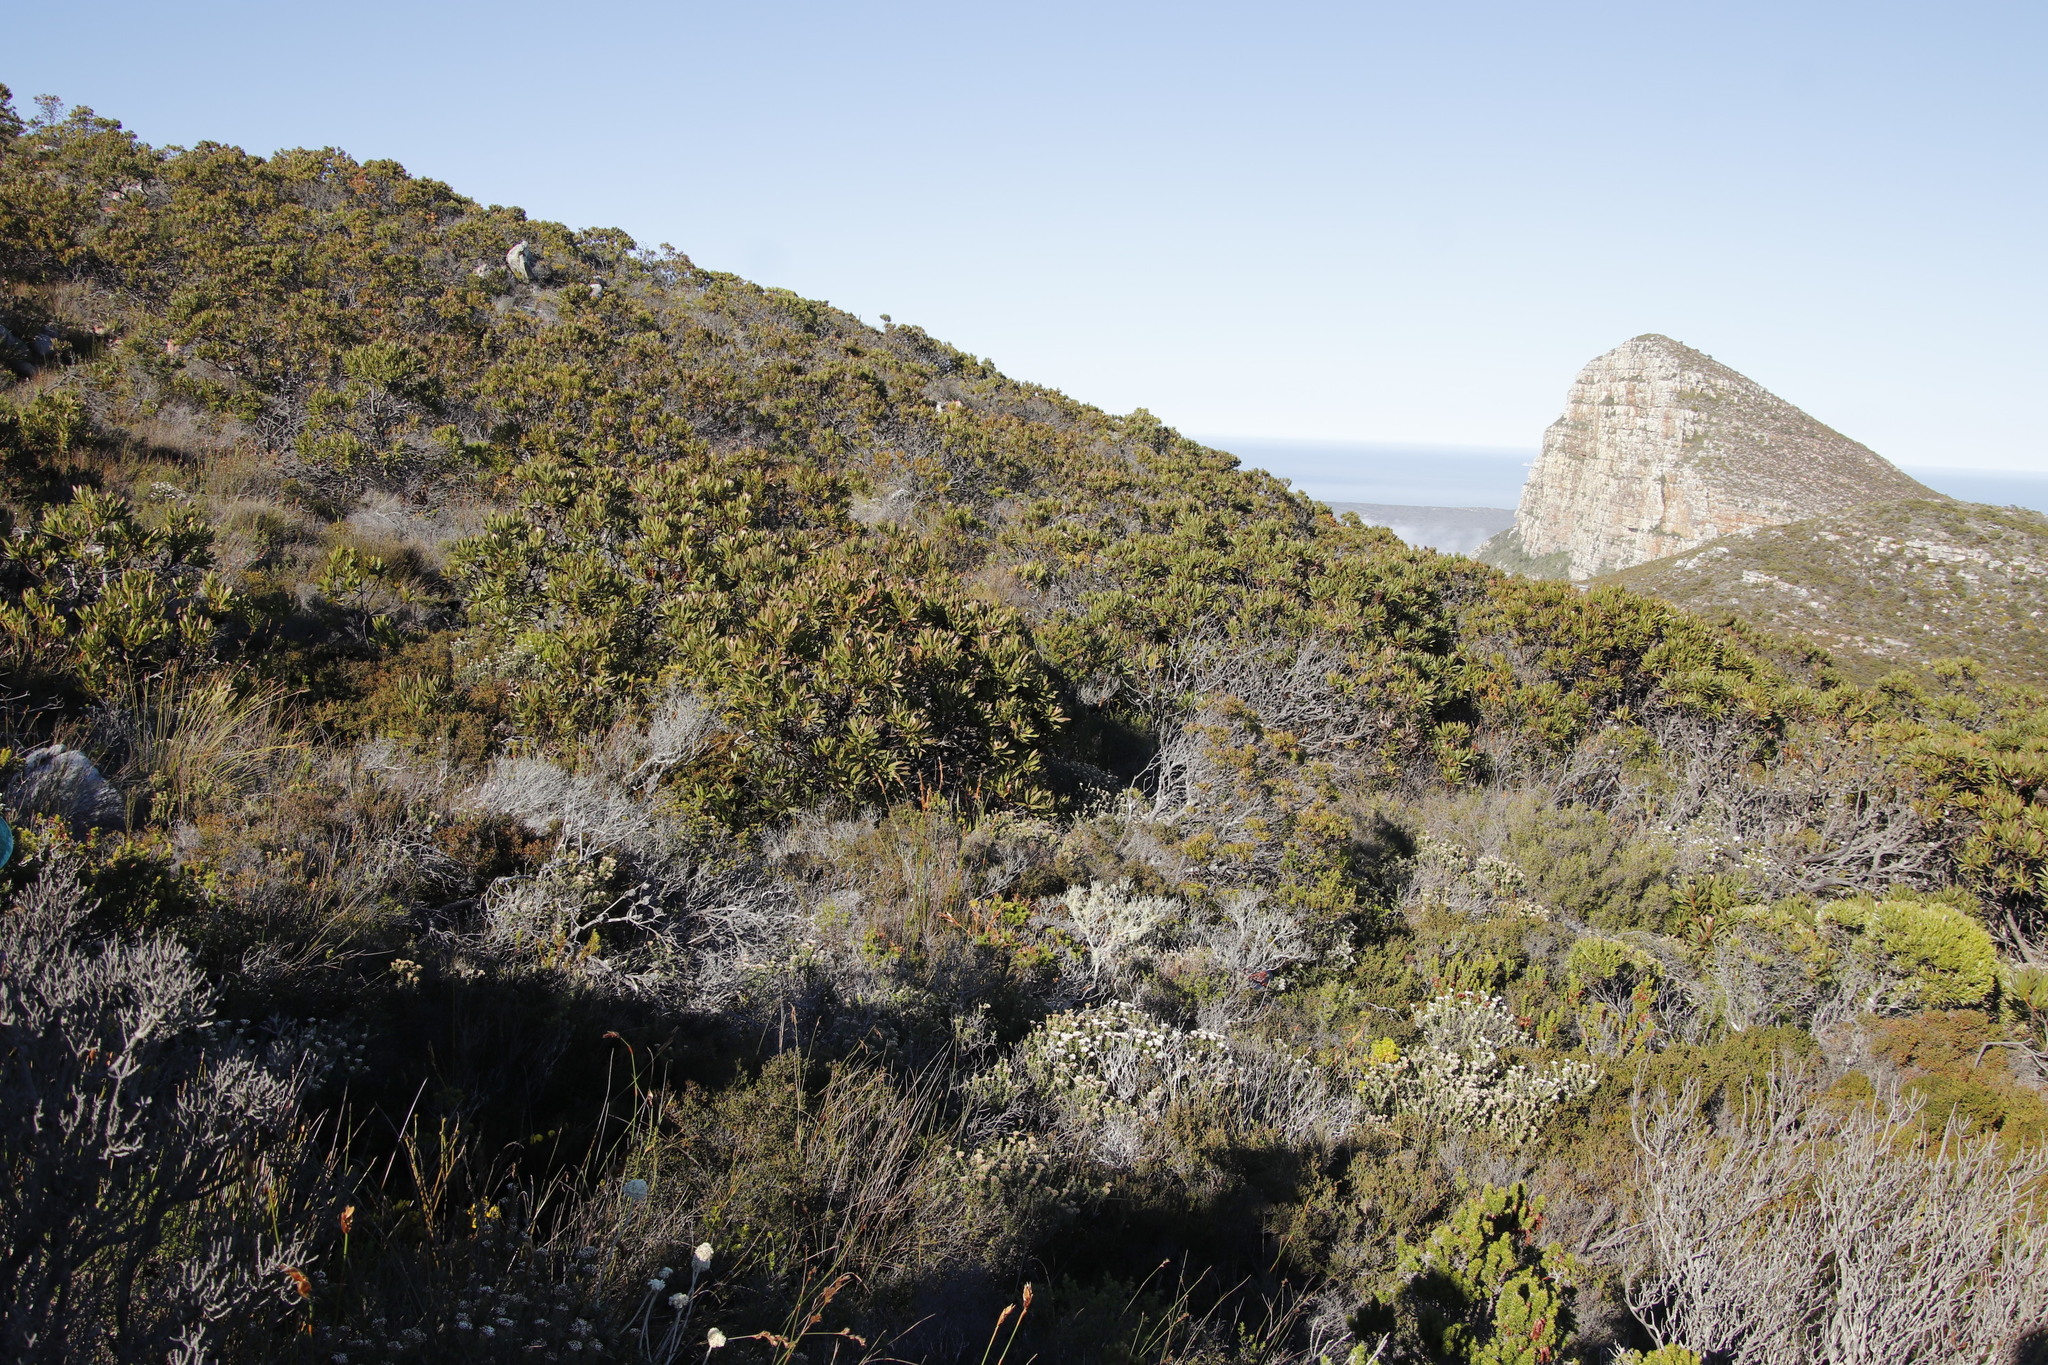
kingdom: Plantae
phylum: Tracheophyta
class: Magnoliopsida
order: Proteales
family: Proteaceae
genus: Protea
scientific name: Protea lepidocarpodendron
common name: Black-bearded protea
